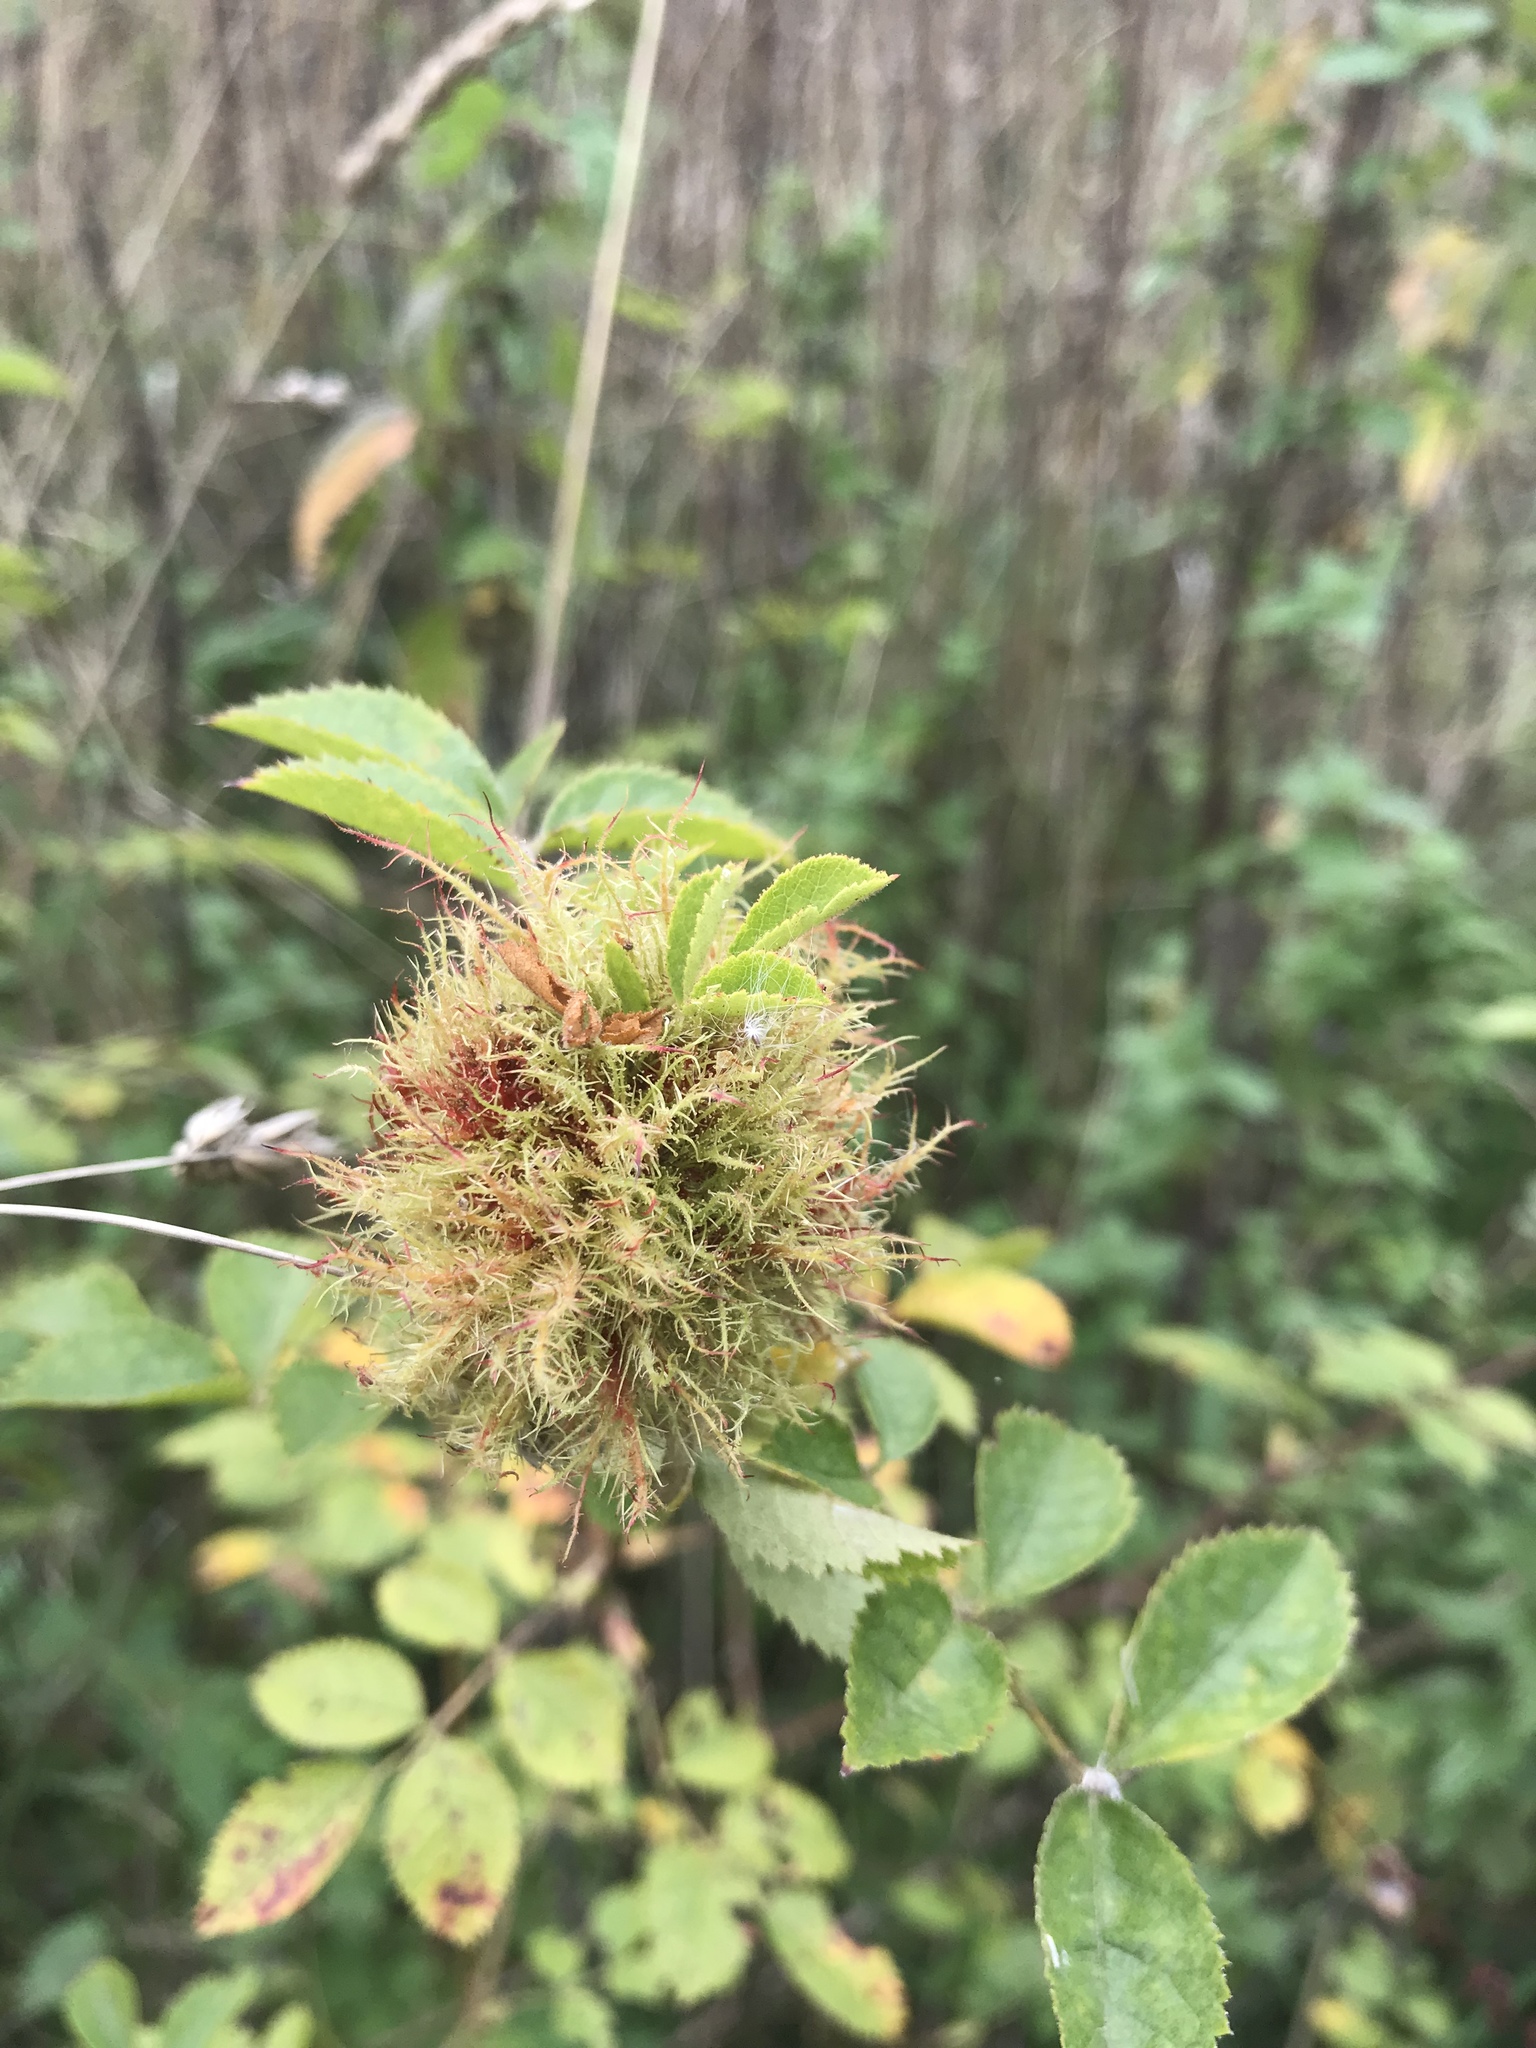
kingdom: Animalia
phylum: Arthropoda
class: Insecta
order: Hymenoptera
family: Cynipidae
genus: Diplolepis
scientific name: Diplolepis rosae
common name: Bedeguar gall
